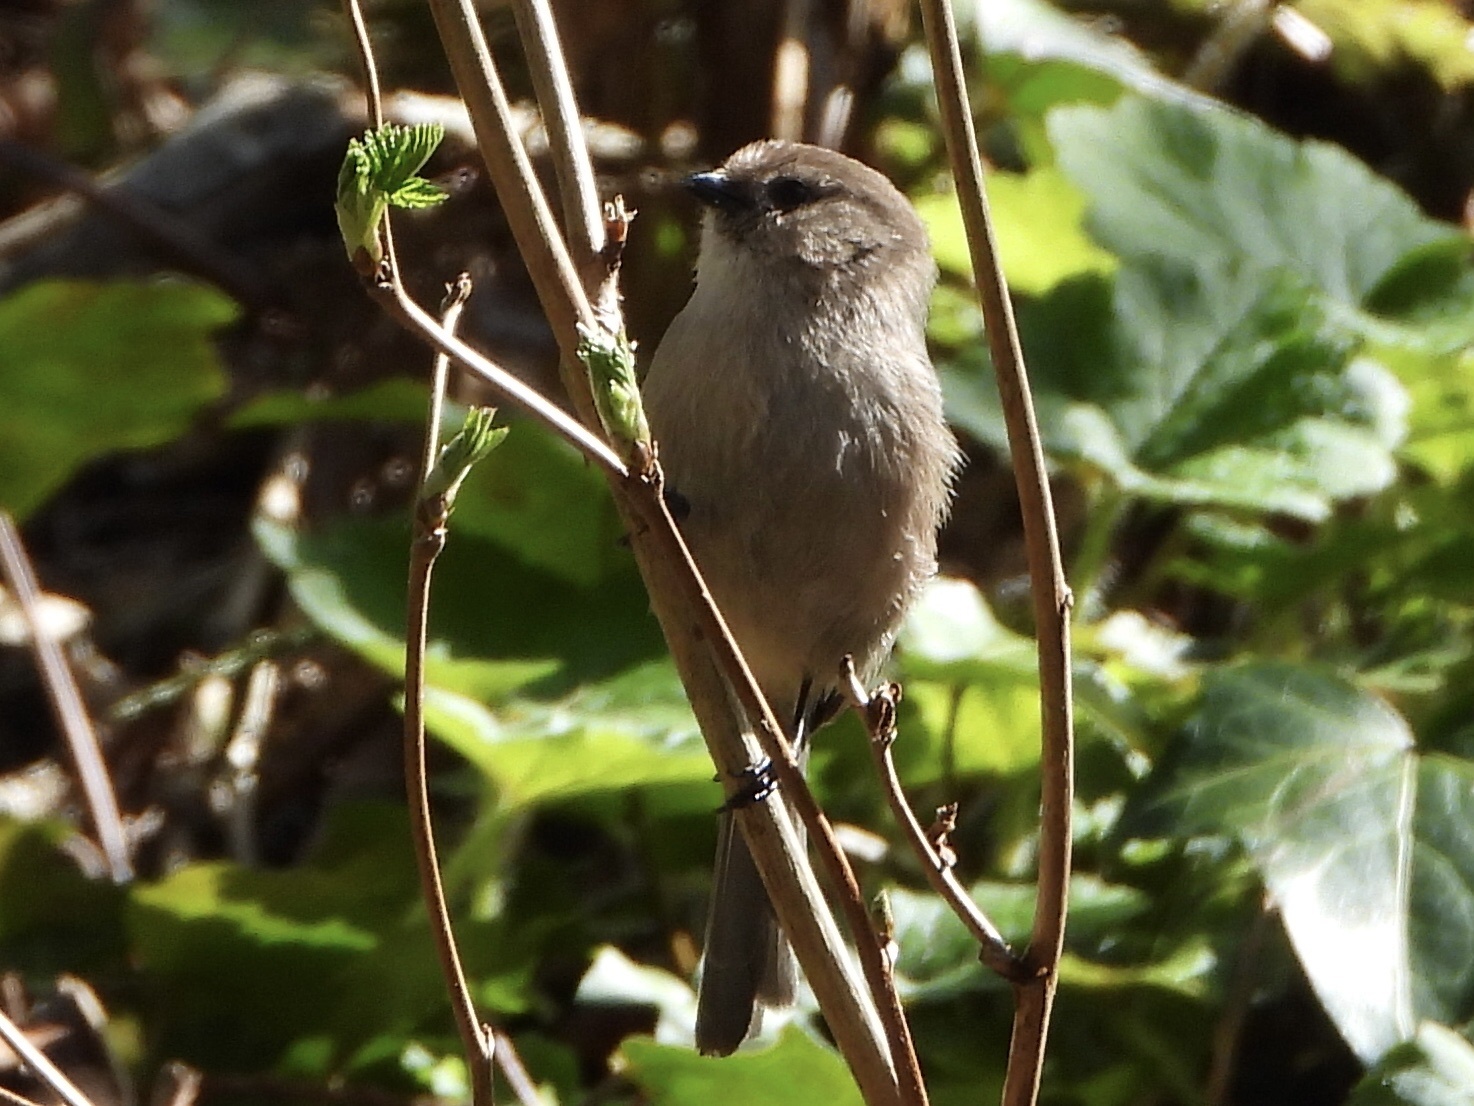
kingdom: Animalia
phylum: Chordata
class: Aves
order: Passeriformes
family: Aegithalidae
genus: Psaltriparus
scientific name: Psaltriparus minimus
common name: American bushtit
